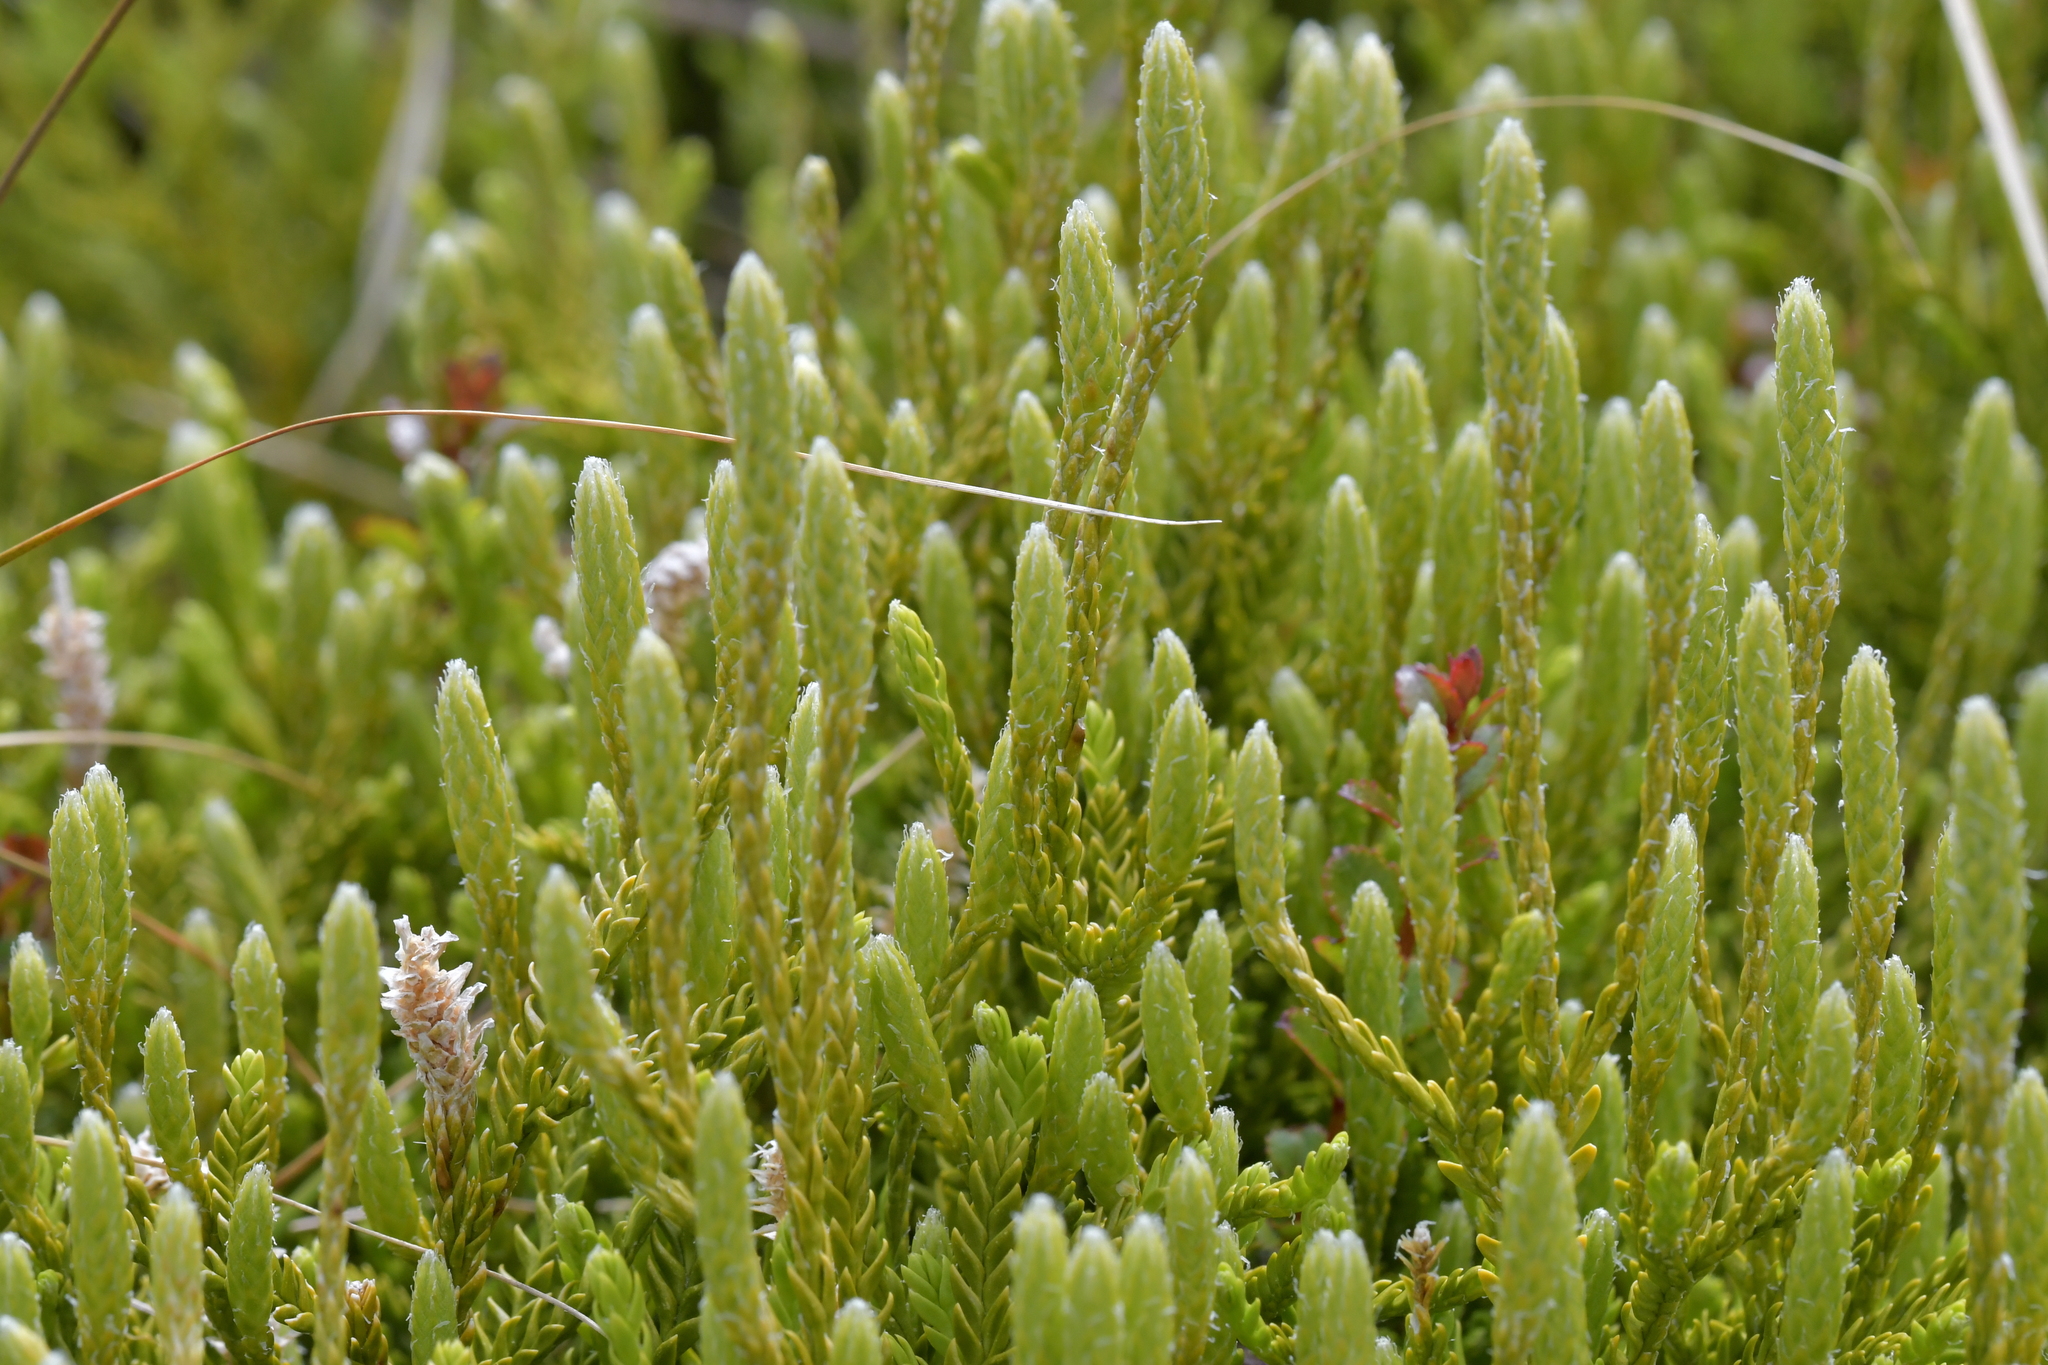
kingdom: Plantae
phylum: Tracheophyta
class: Lycopodiopsida
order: Lycopodiales
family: Lycopodiaceae
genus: Diphasium
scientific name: Diphasium scariosum
